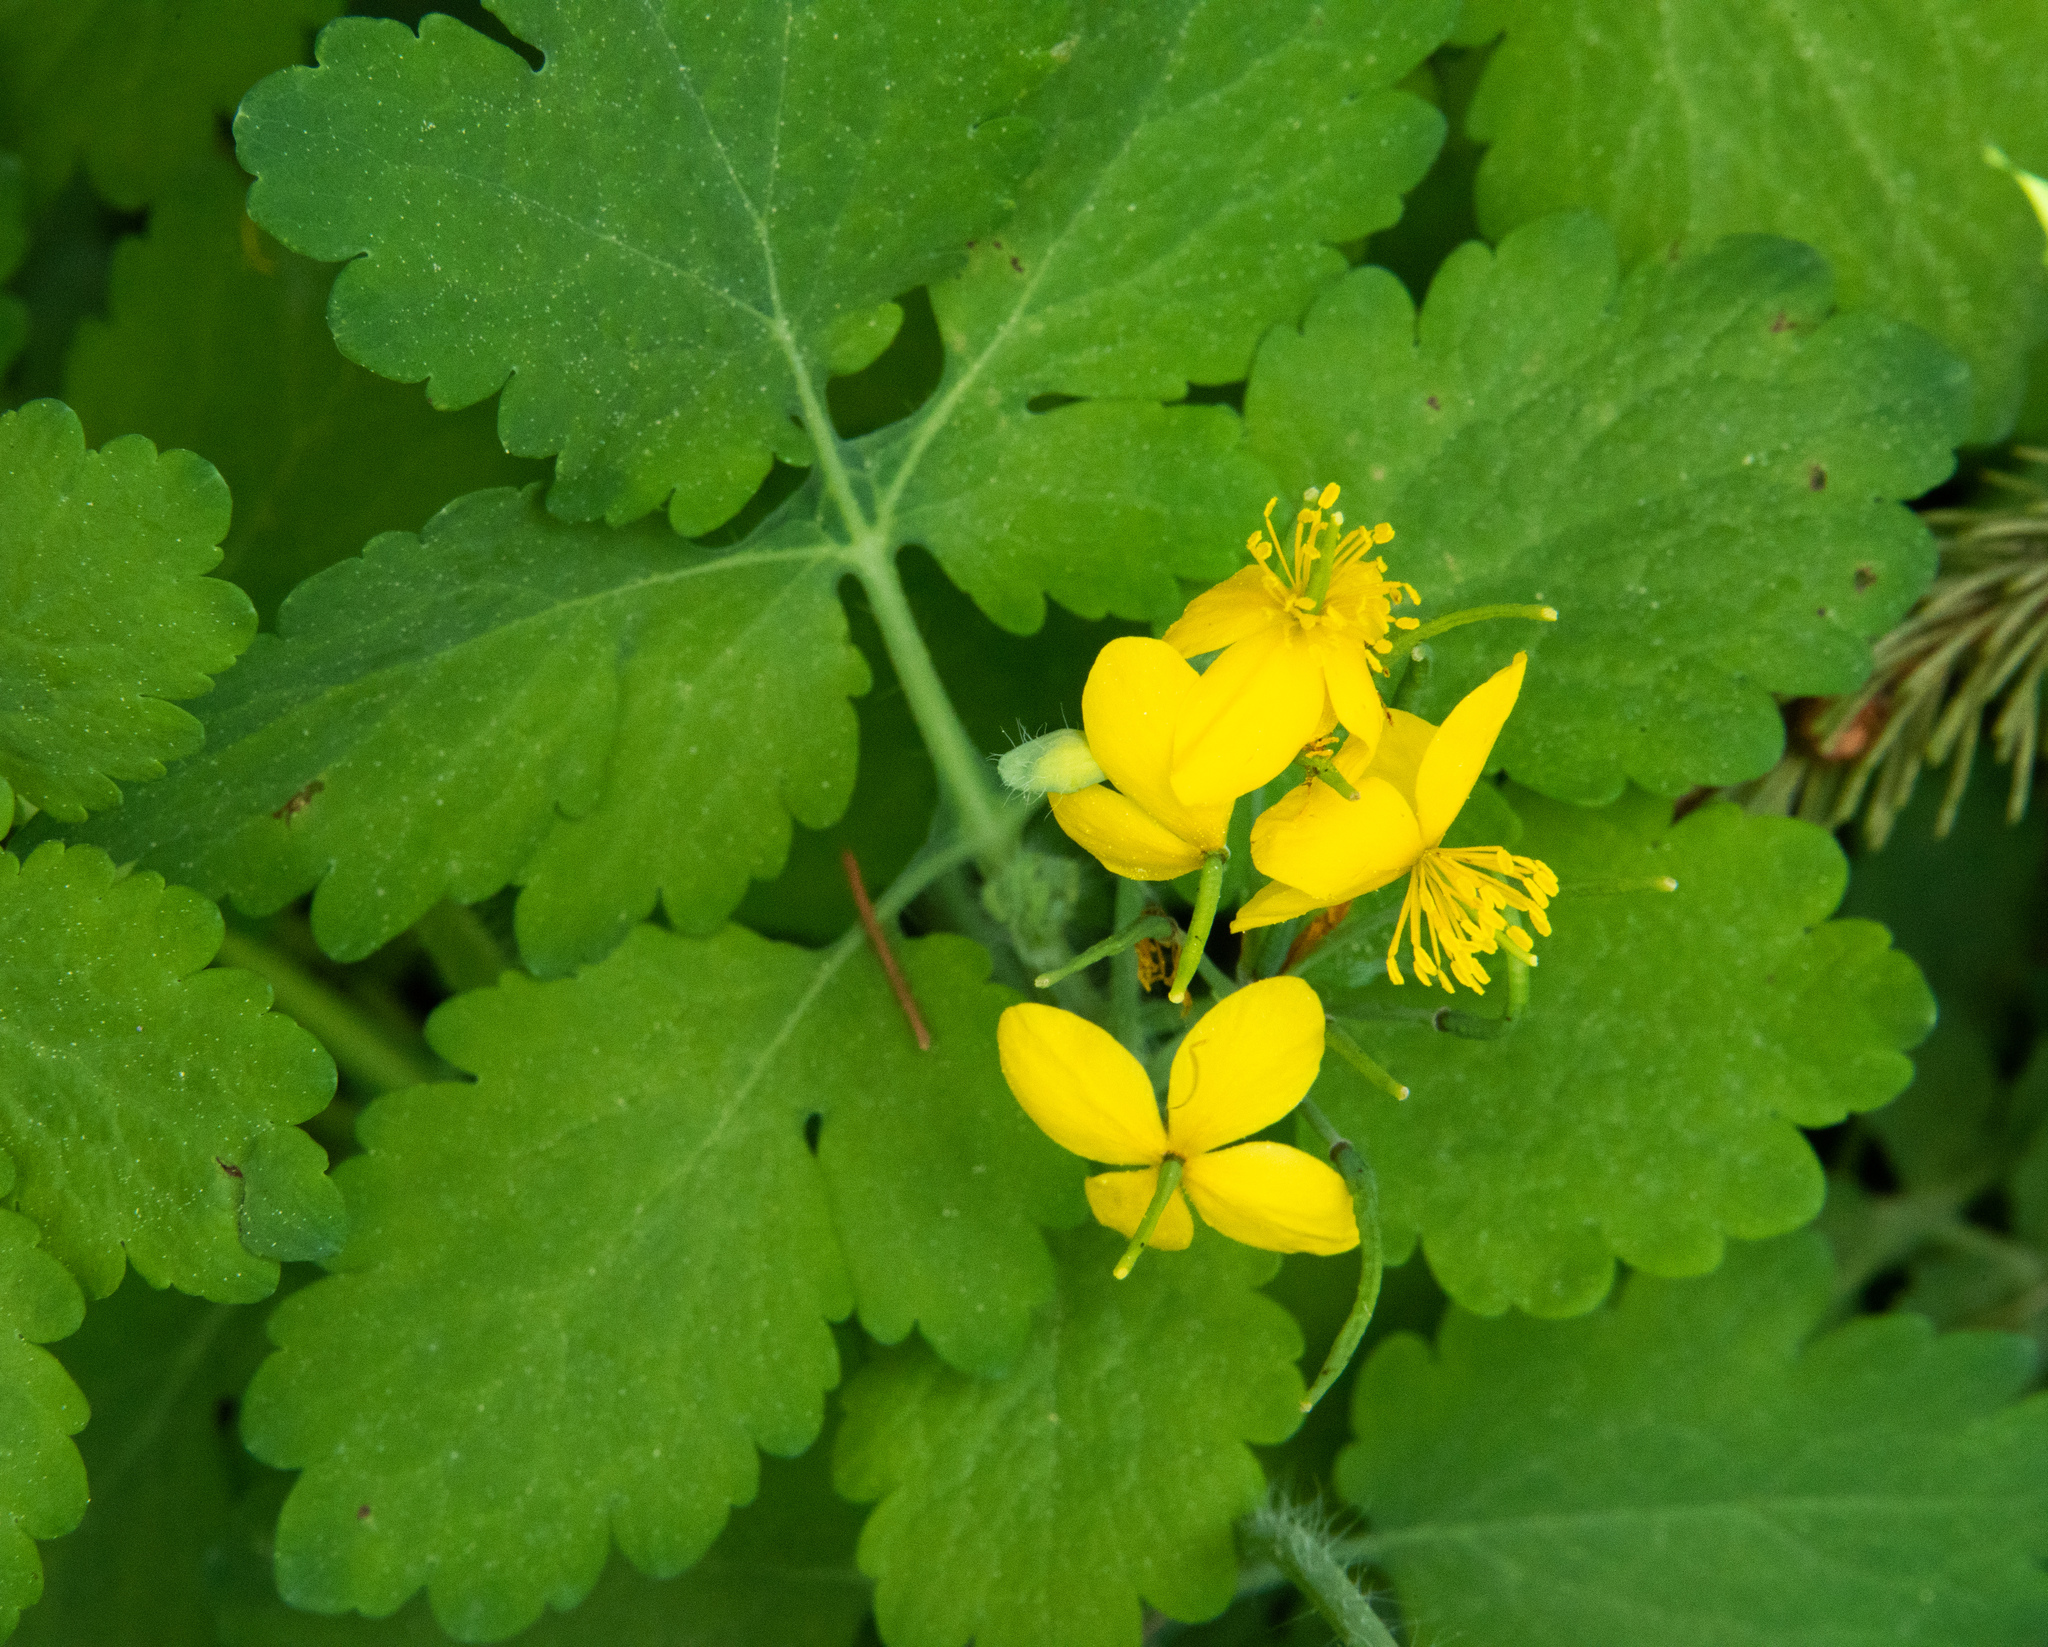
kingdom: Plantae
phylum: Tracheophyta
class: Magnoliopsida
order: Ranunculales
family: Papaveraceae
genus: Chelidonium
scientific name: Chelidonium majus
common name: Greater celandine
